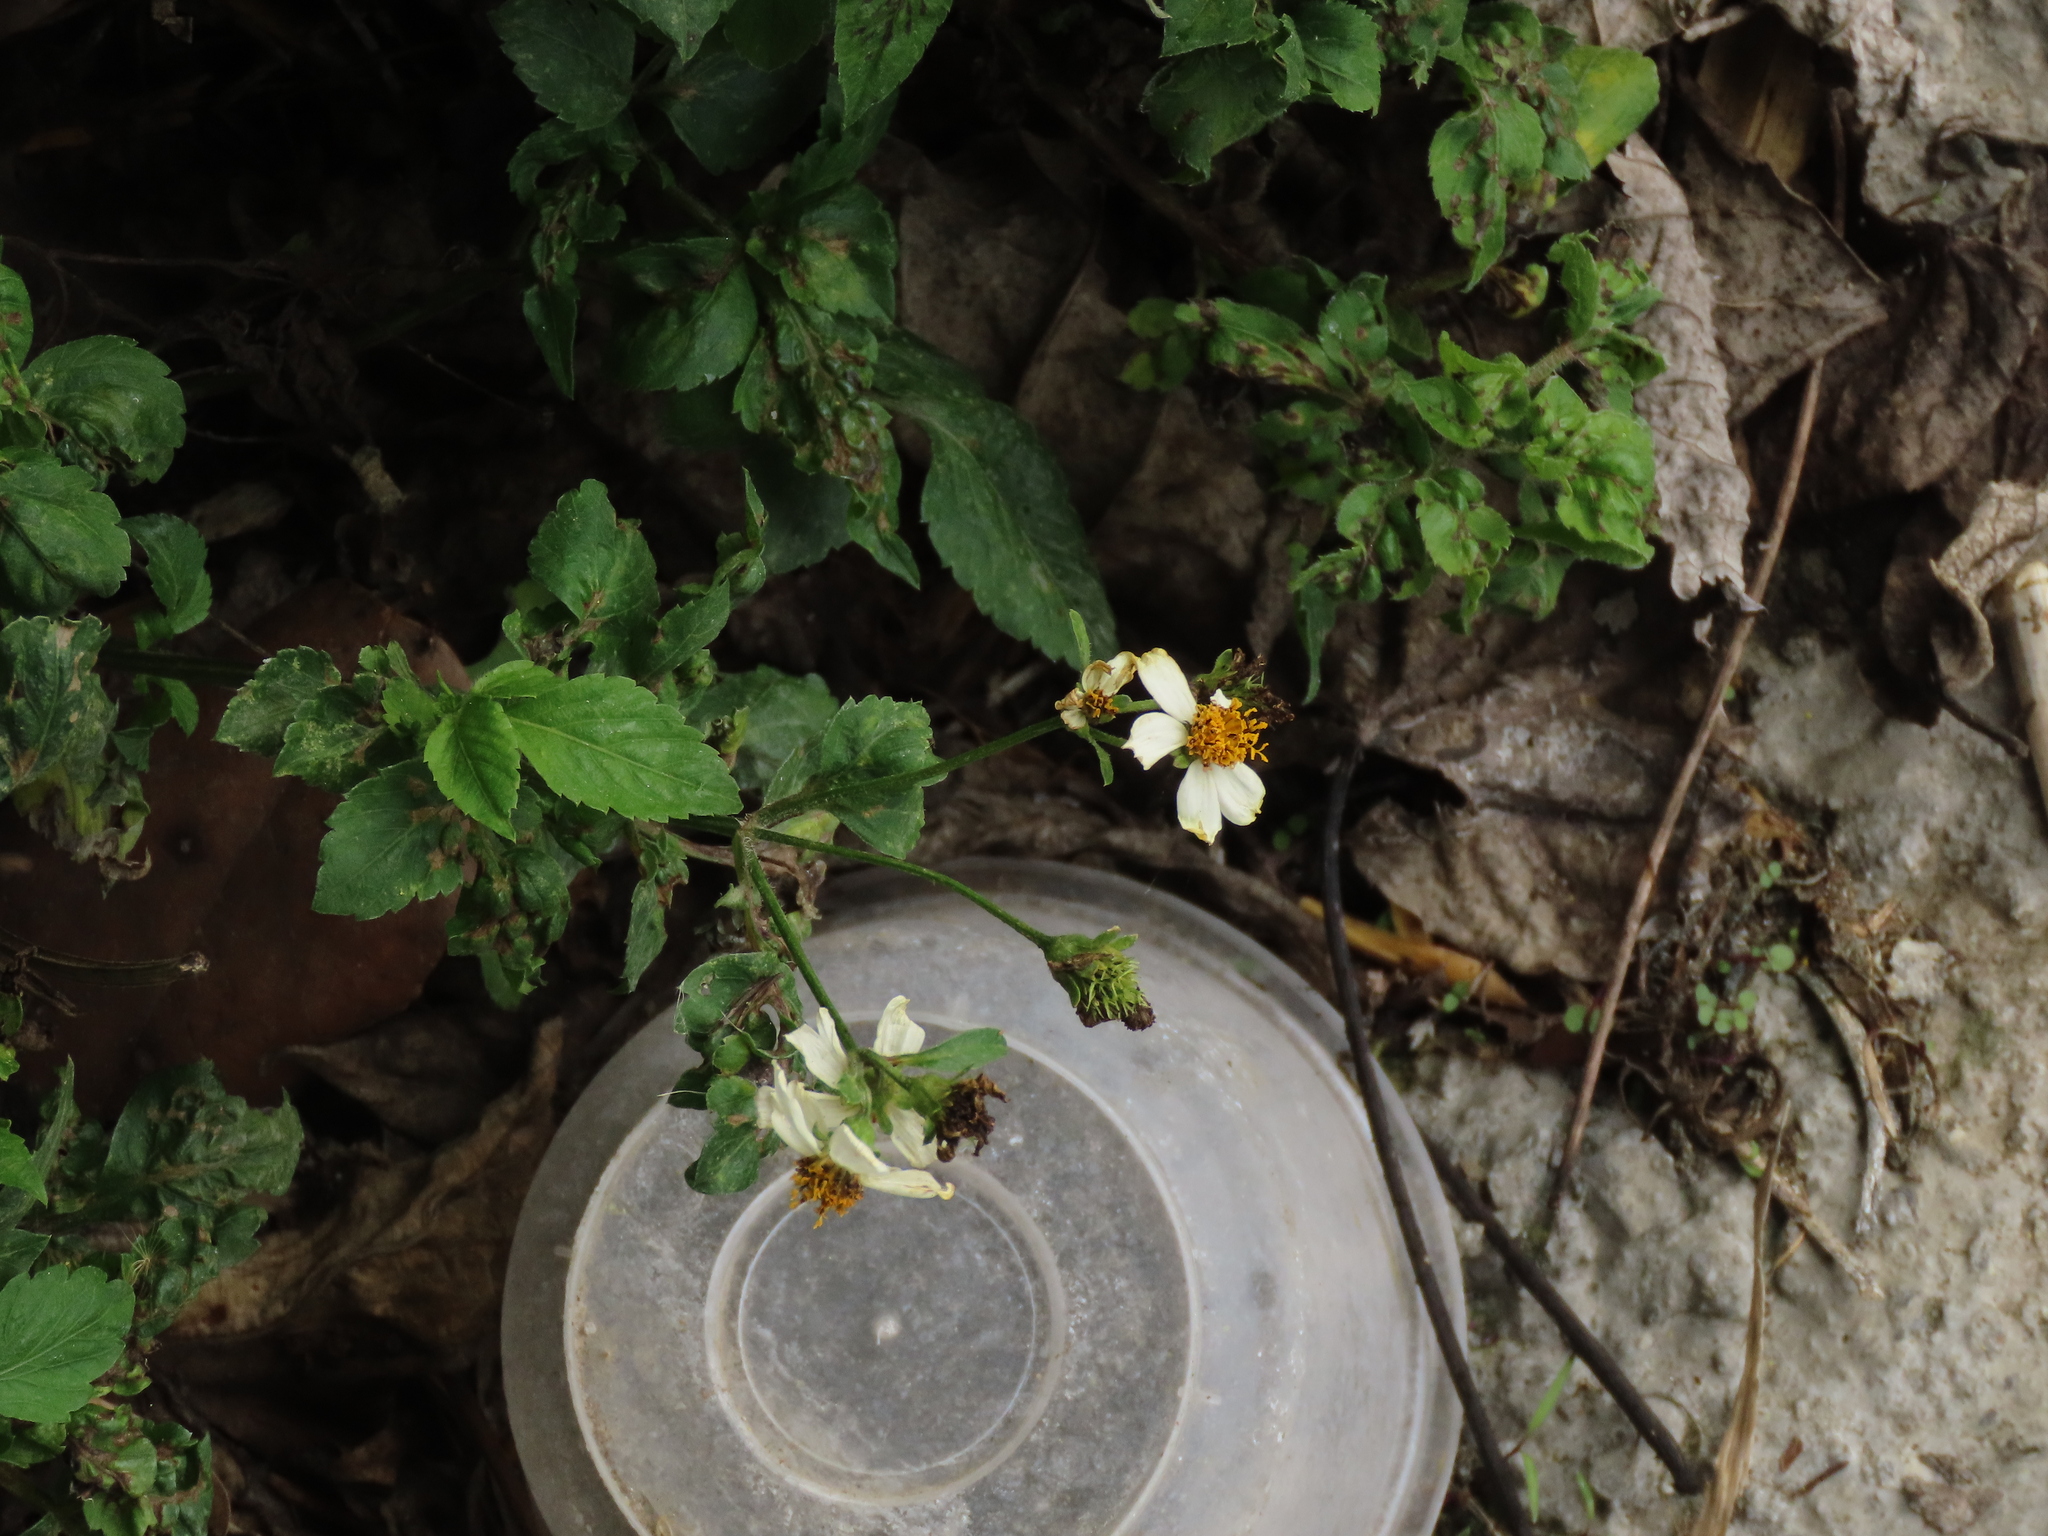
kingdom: Plantae
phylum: Tracheophyta
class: Magnoliopsida
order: Asterales
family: Asteraceae
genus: Bidens
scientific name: Bidens alba
